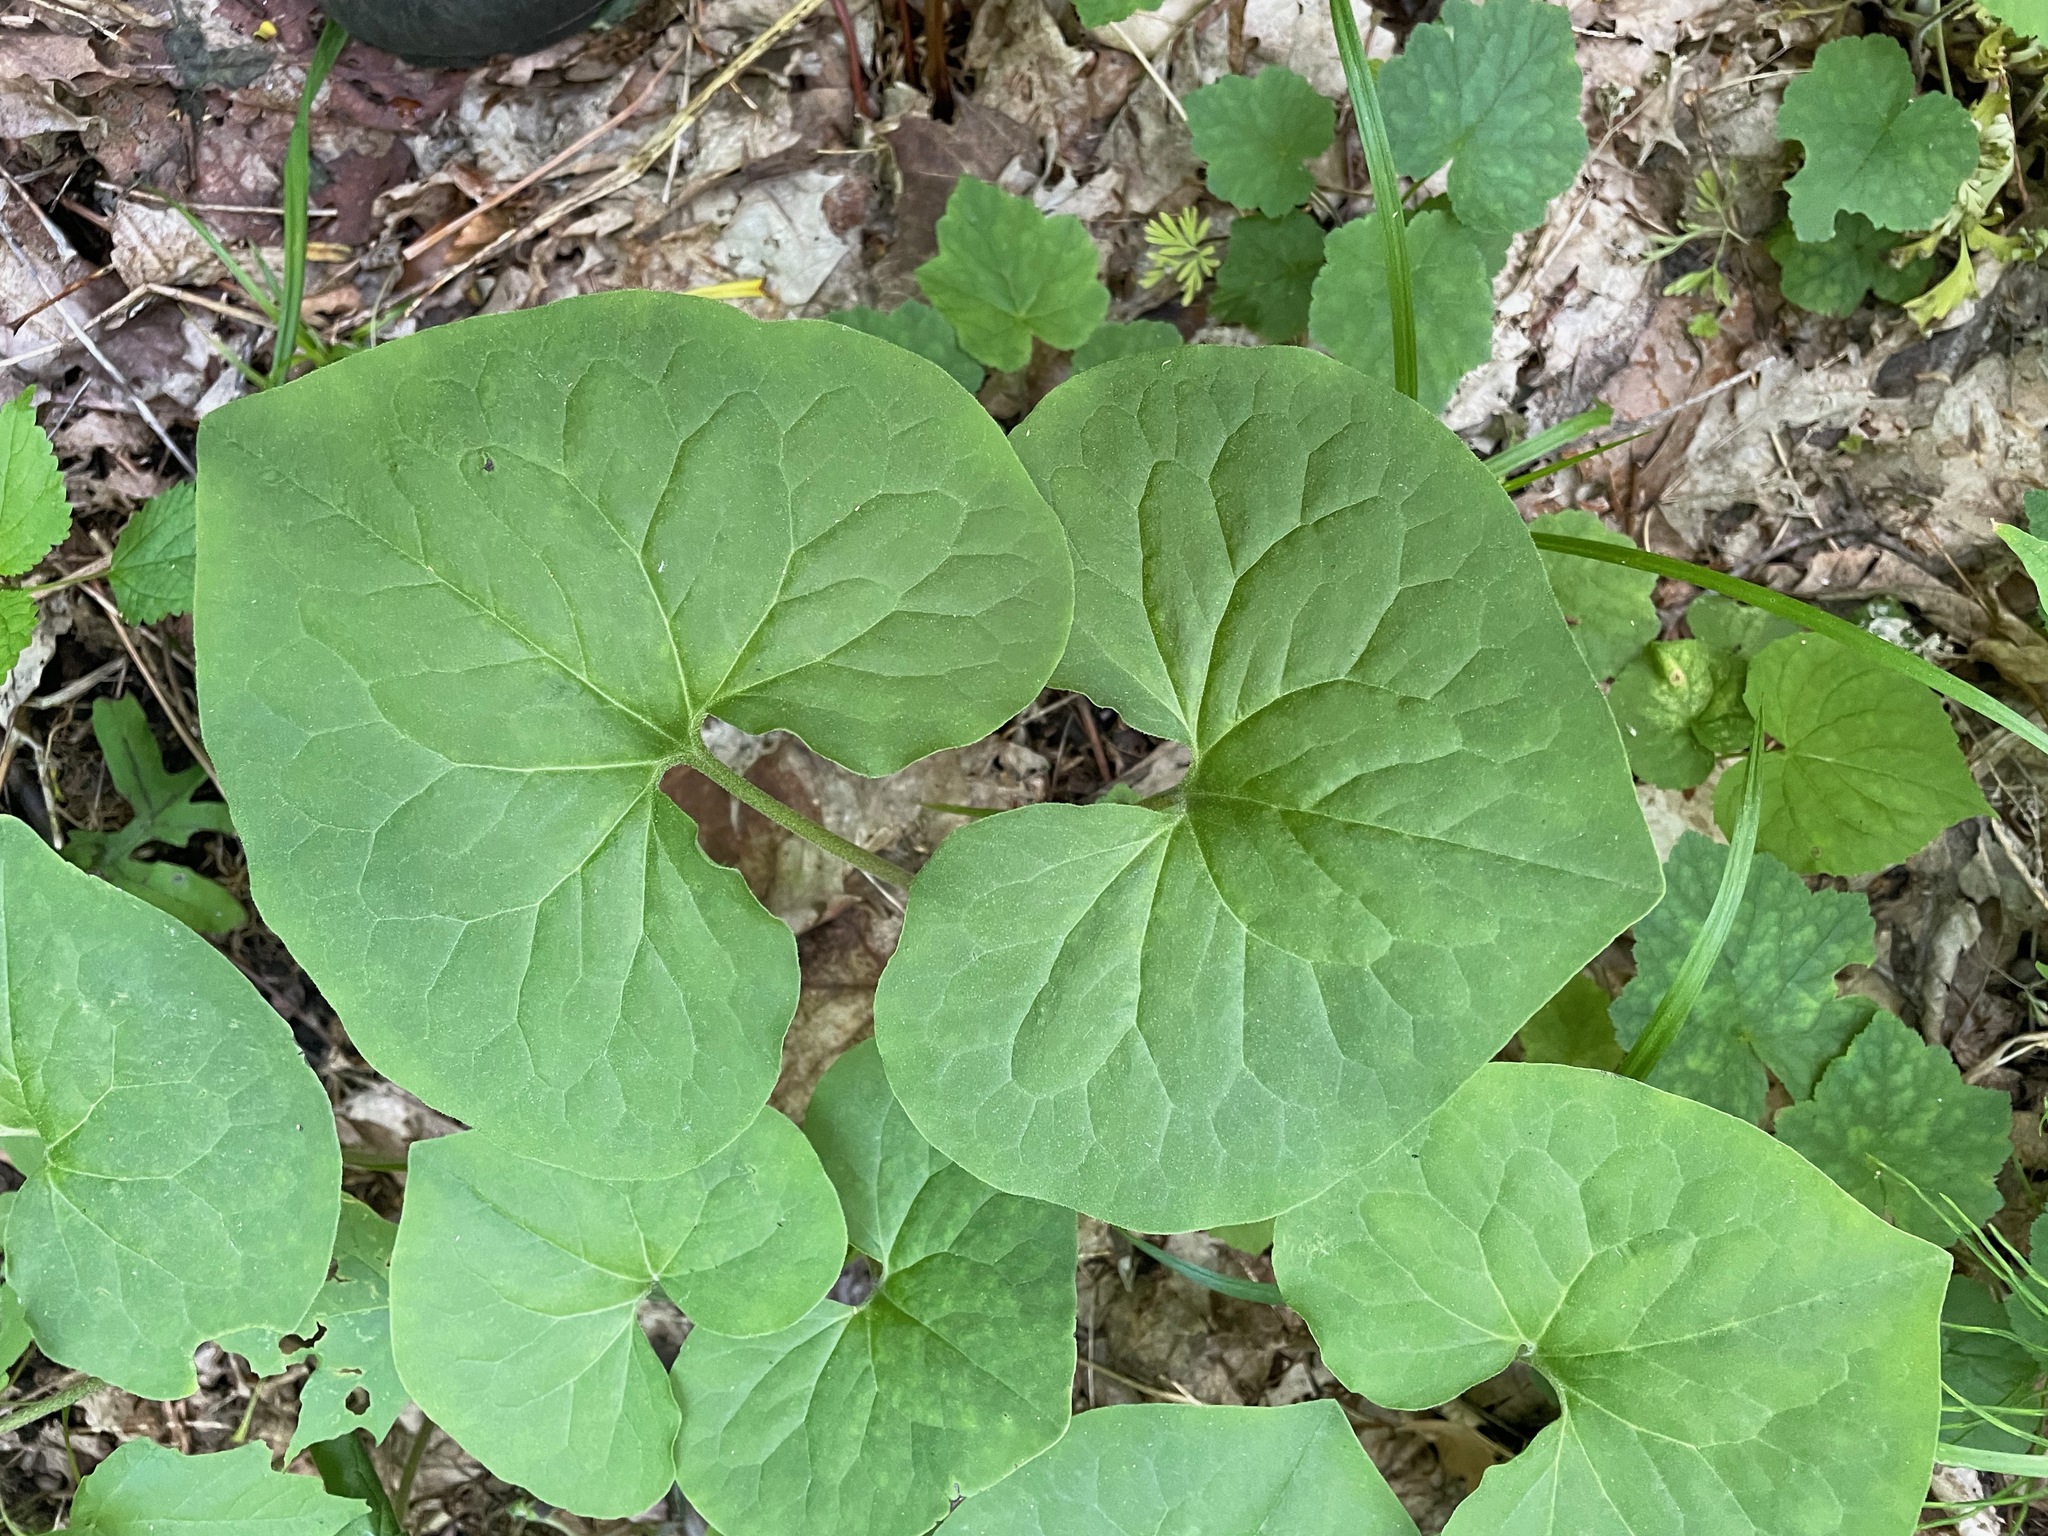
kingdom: Plantae
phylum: Tracheophyta
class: Magnoliopsida
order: Piperales
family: Aristolochiaceae
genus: Asarum
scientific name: Asarum canadense
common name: Wild ginger
